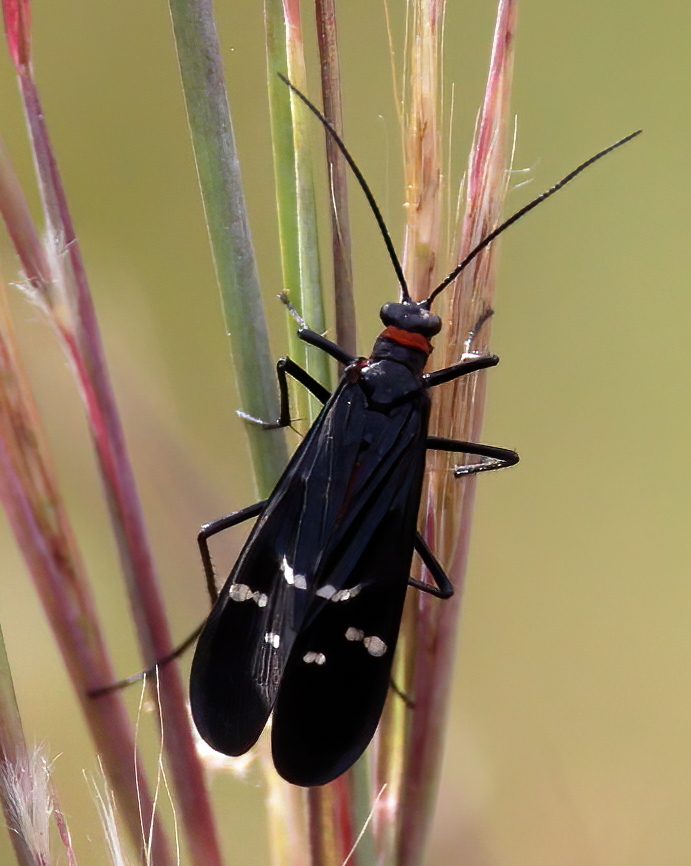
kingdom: Animalia
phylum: Arthropoda
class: Insecta
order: Mecoptera
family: Panorpidae
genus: Panorpa
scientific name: Panorpa lugubris
